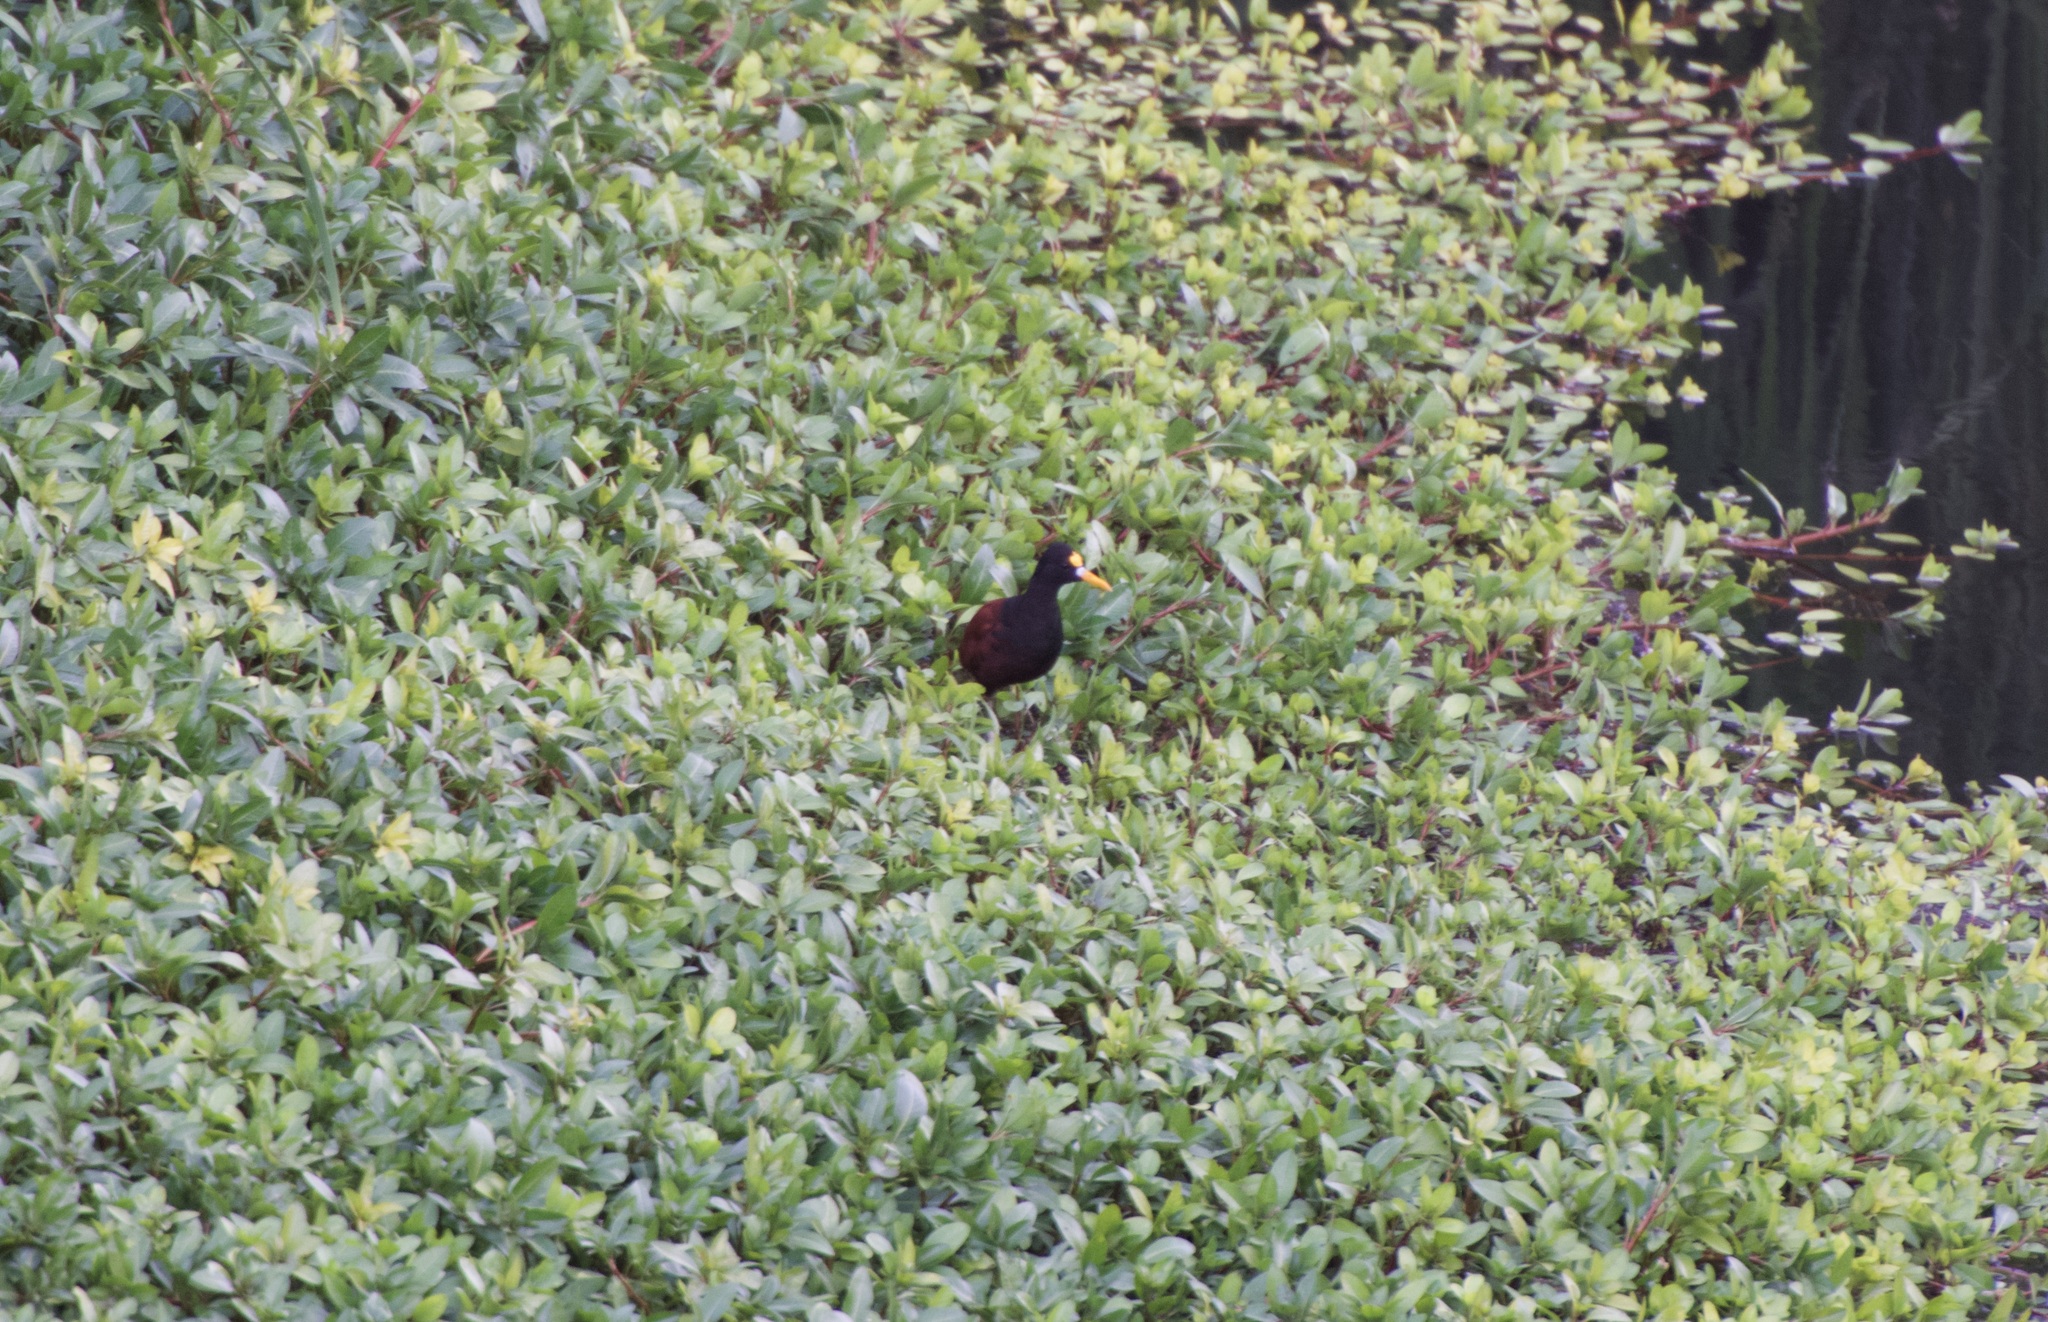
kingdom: Animalia
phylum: Chordata
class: Aves
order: Charadriiformes
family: Jacanidae
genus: Jacana
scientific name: Jacana spinosa
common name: Northern jacana
